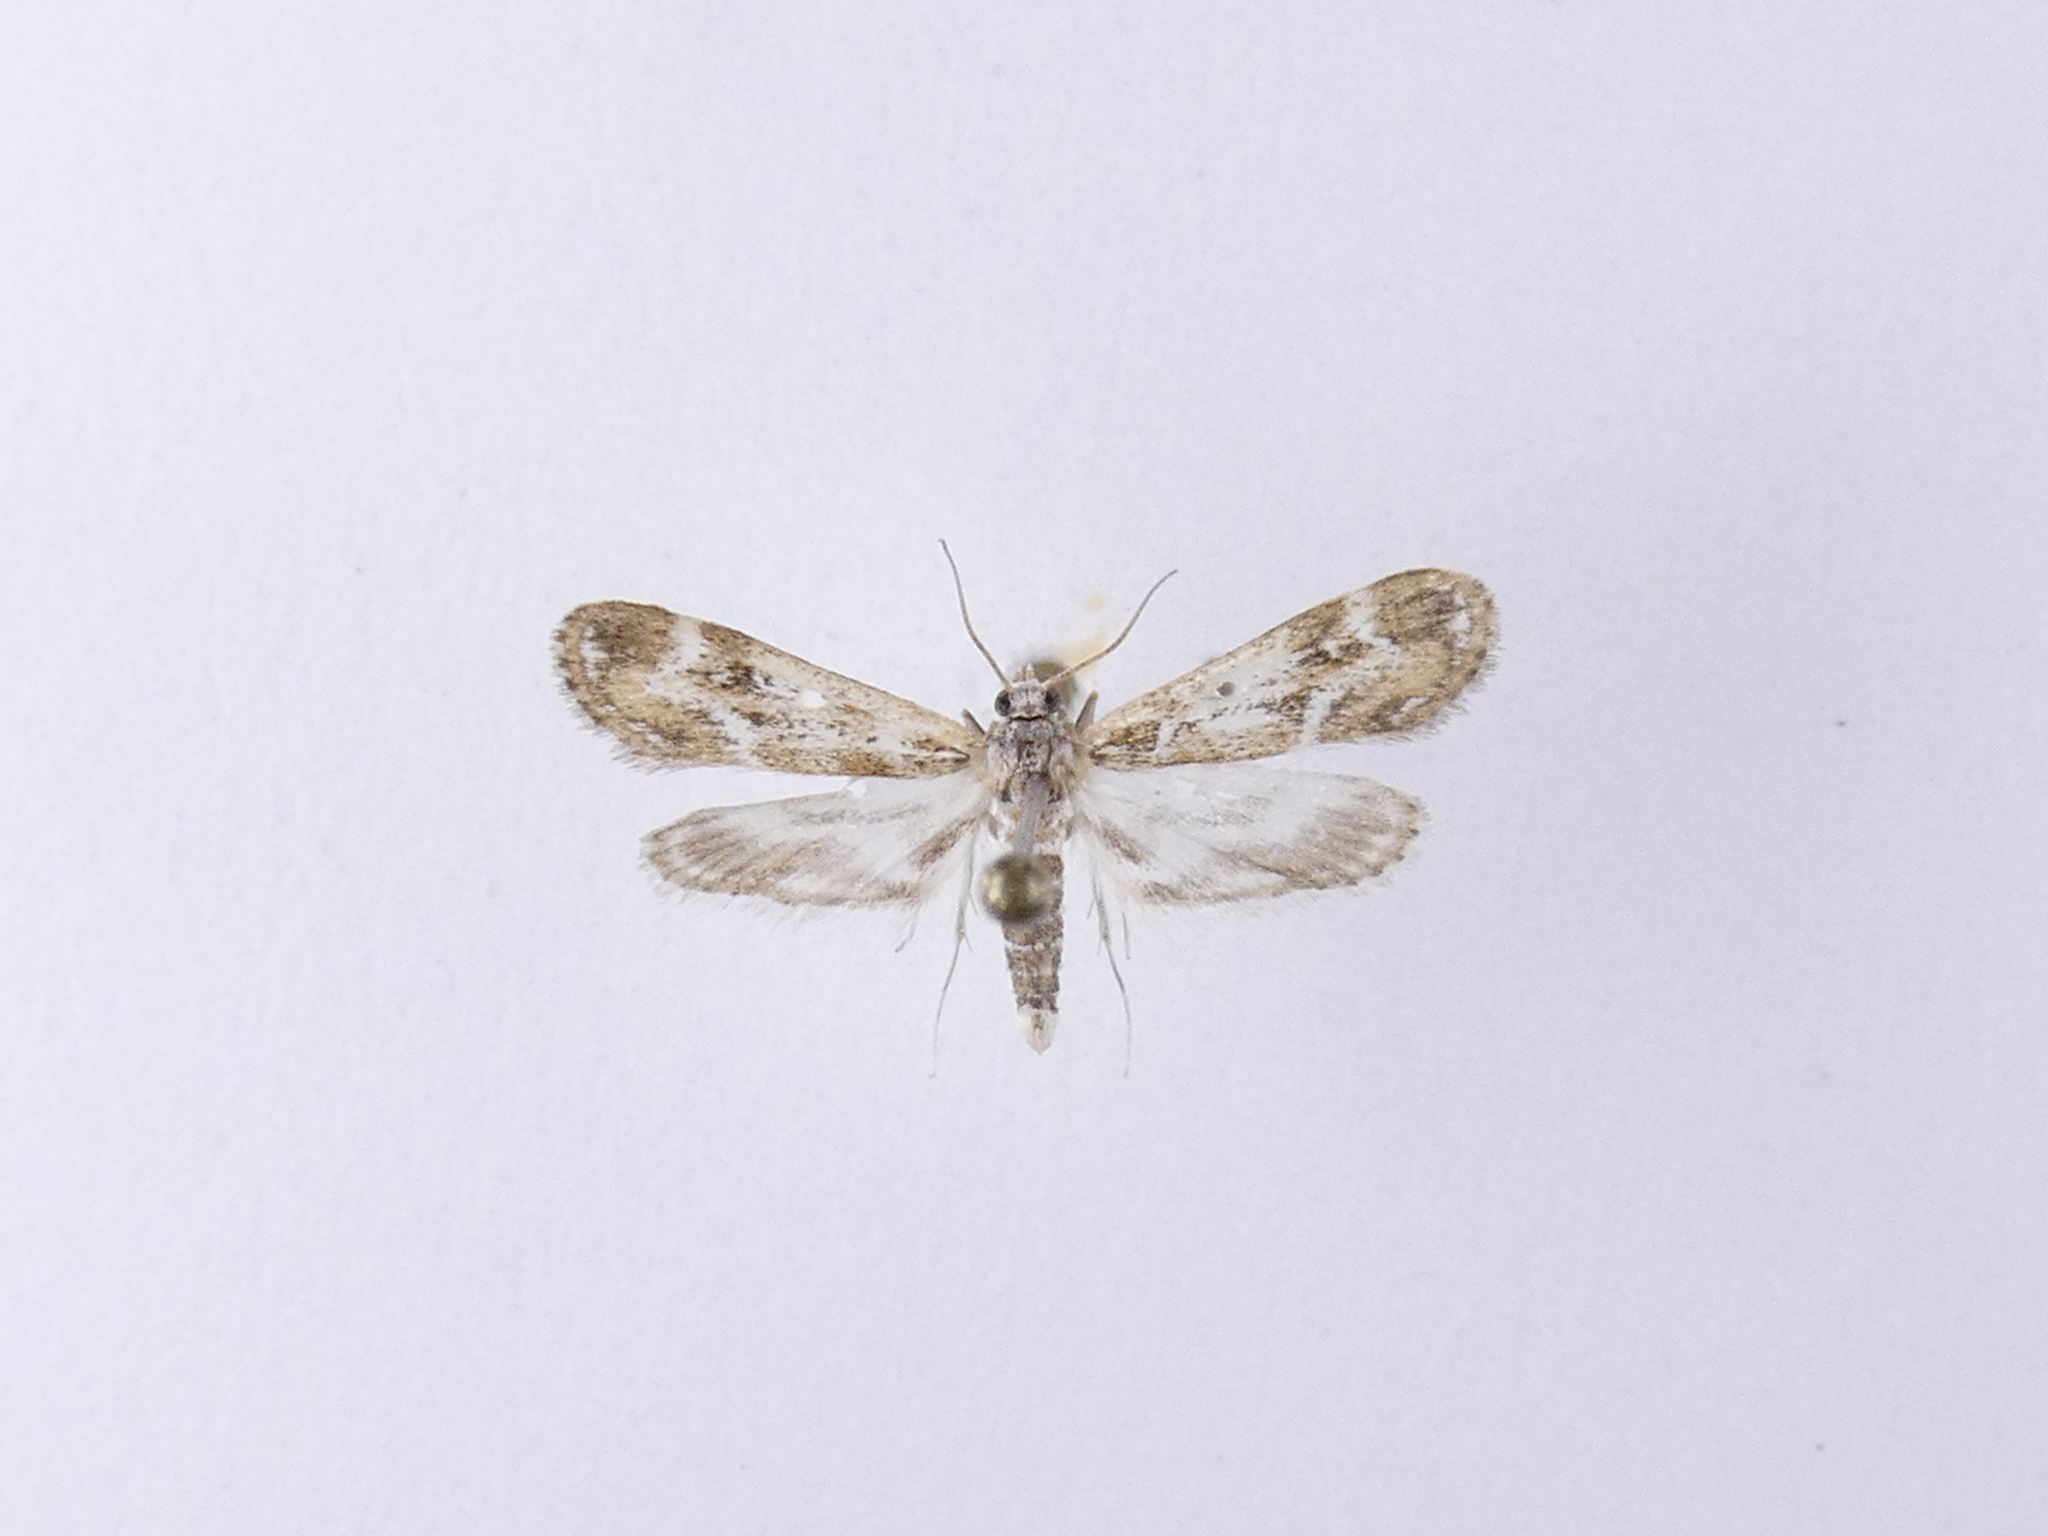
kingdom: Animalia
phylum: Arthropoda
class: Insecta
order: Lepidoptera
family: Crambidae
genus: Hygraula
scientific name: Hygraula nitens
